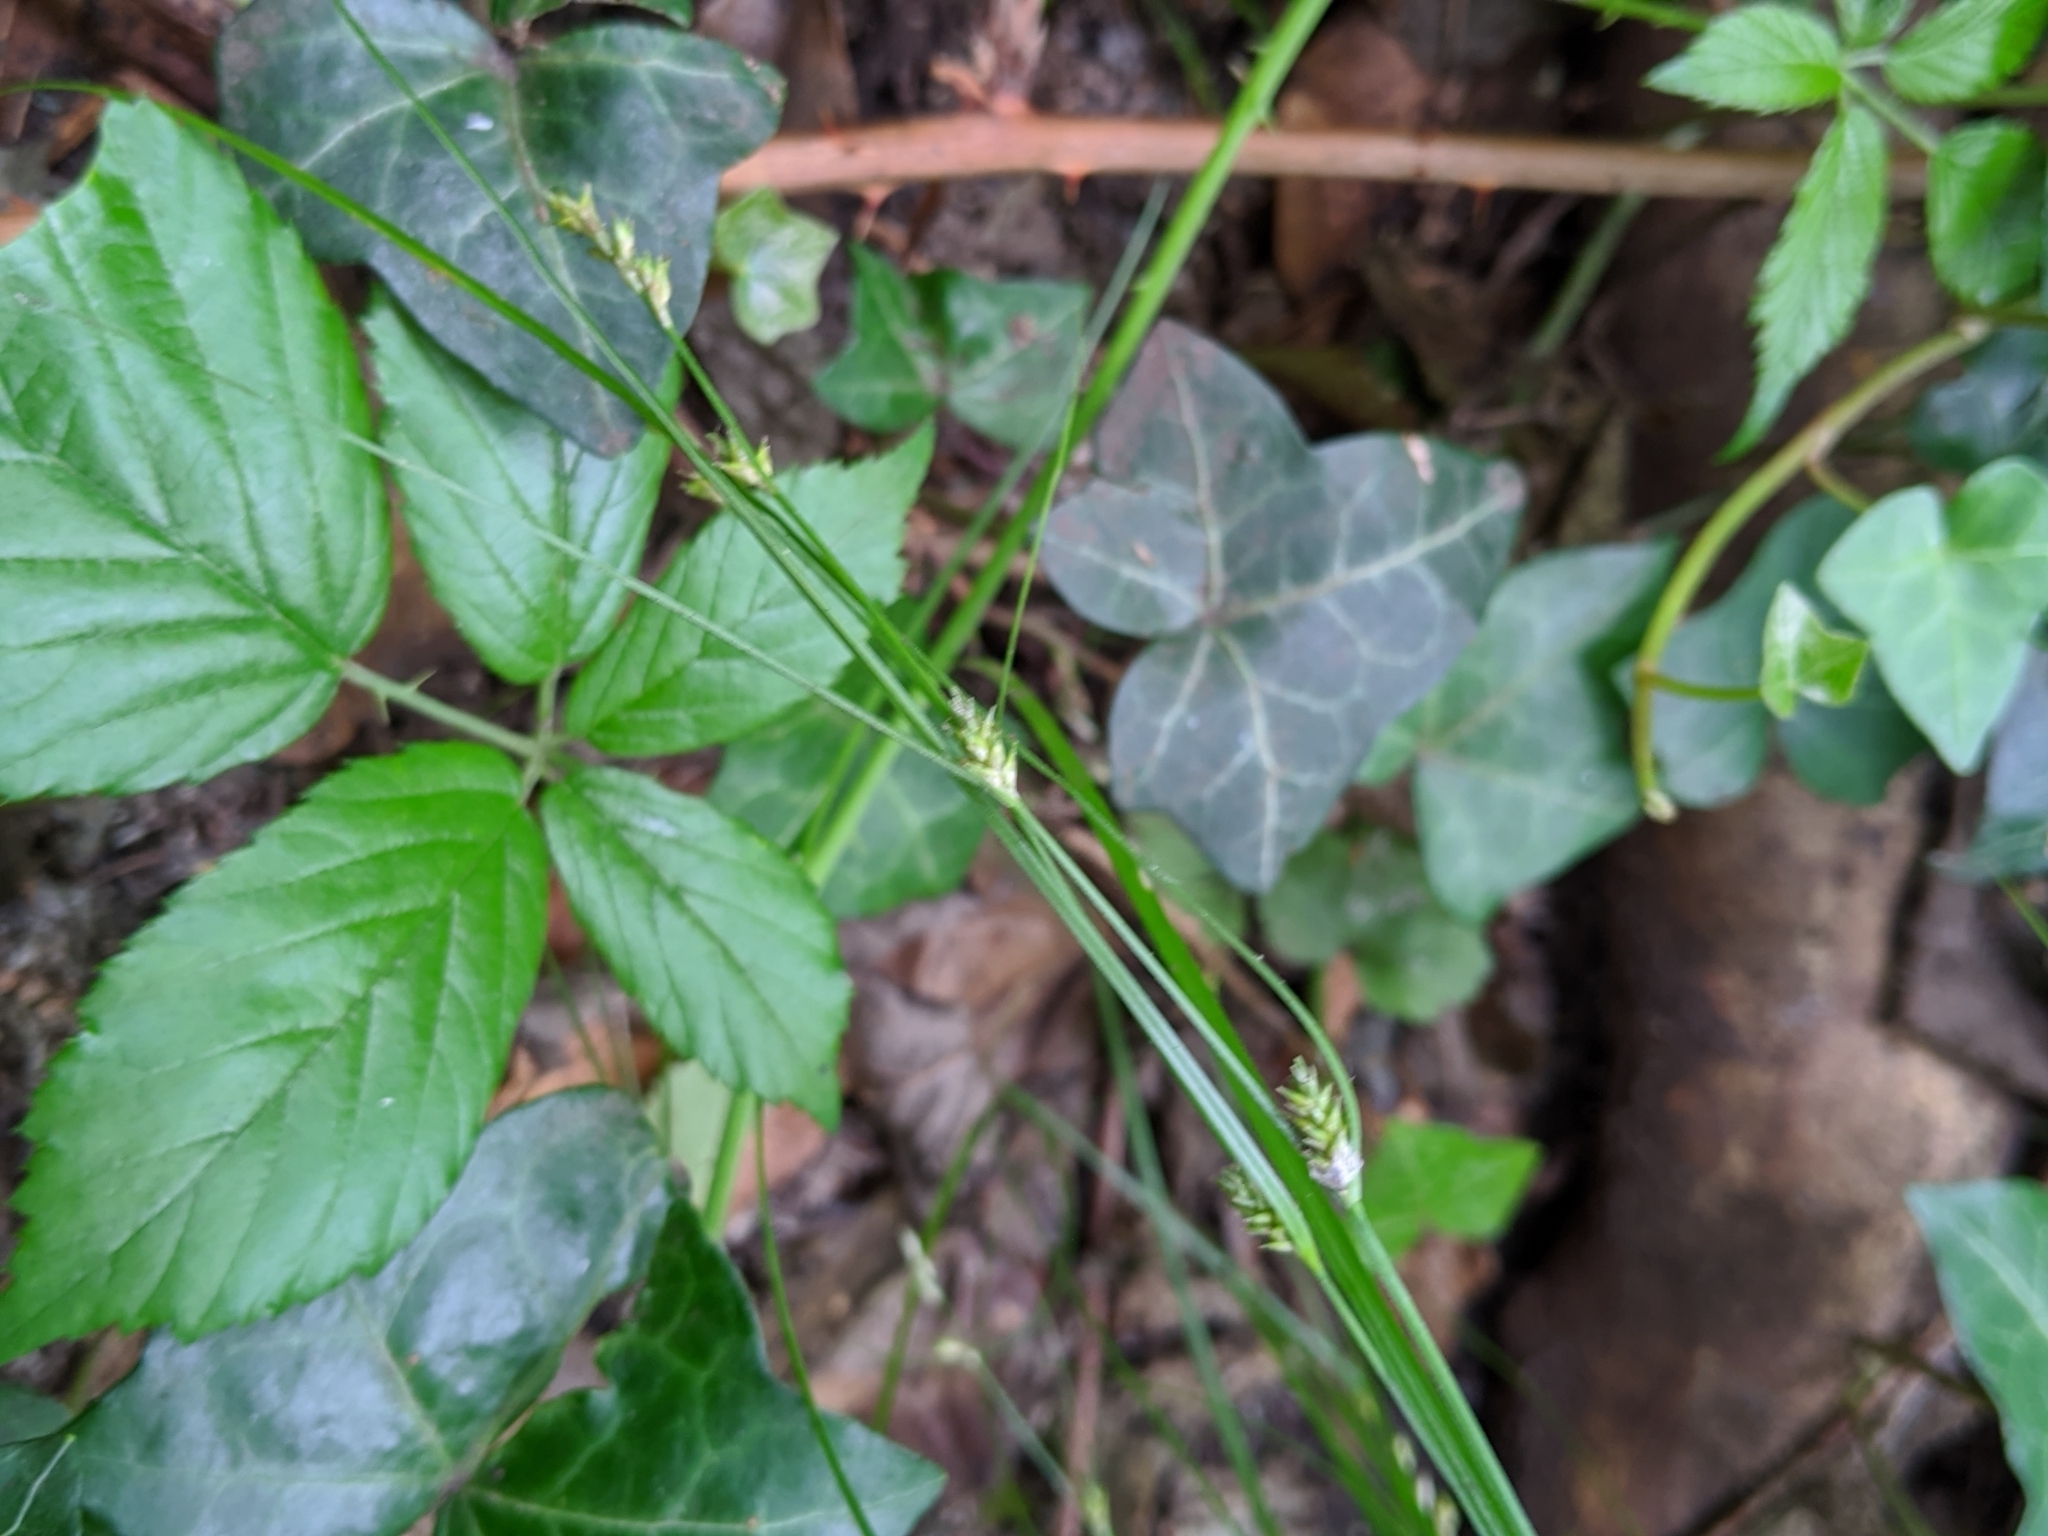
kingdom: Plantae
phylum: Tracheophyta
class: Liliopsida
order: Poales
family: Cyperaceae
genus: Carex
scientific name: Carex remota
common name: Remote sedge
